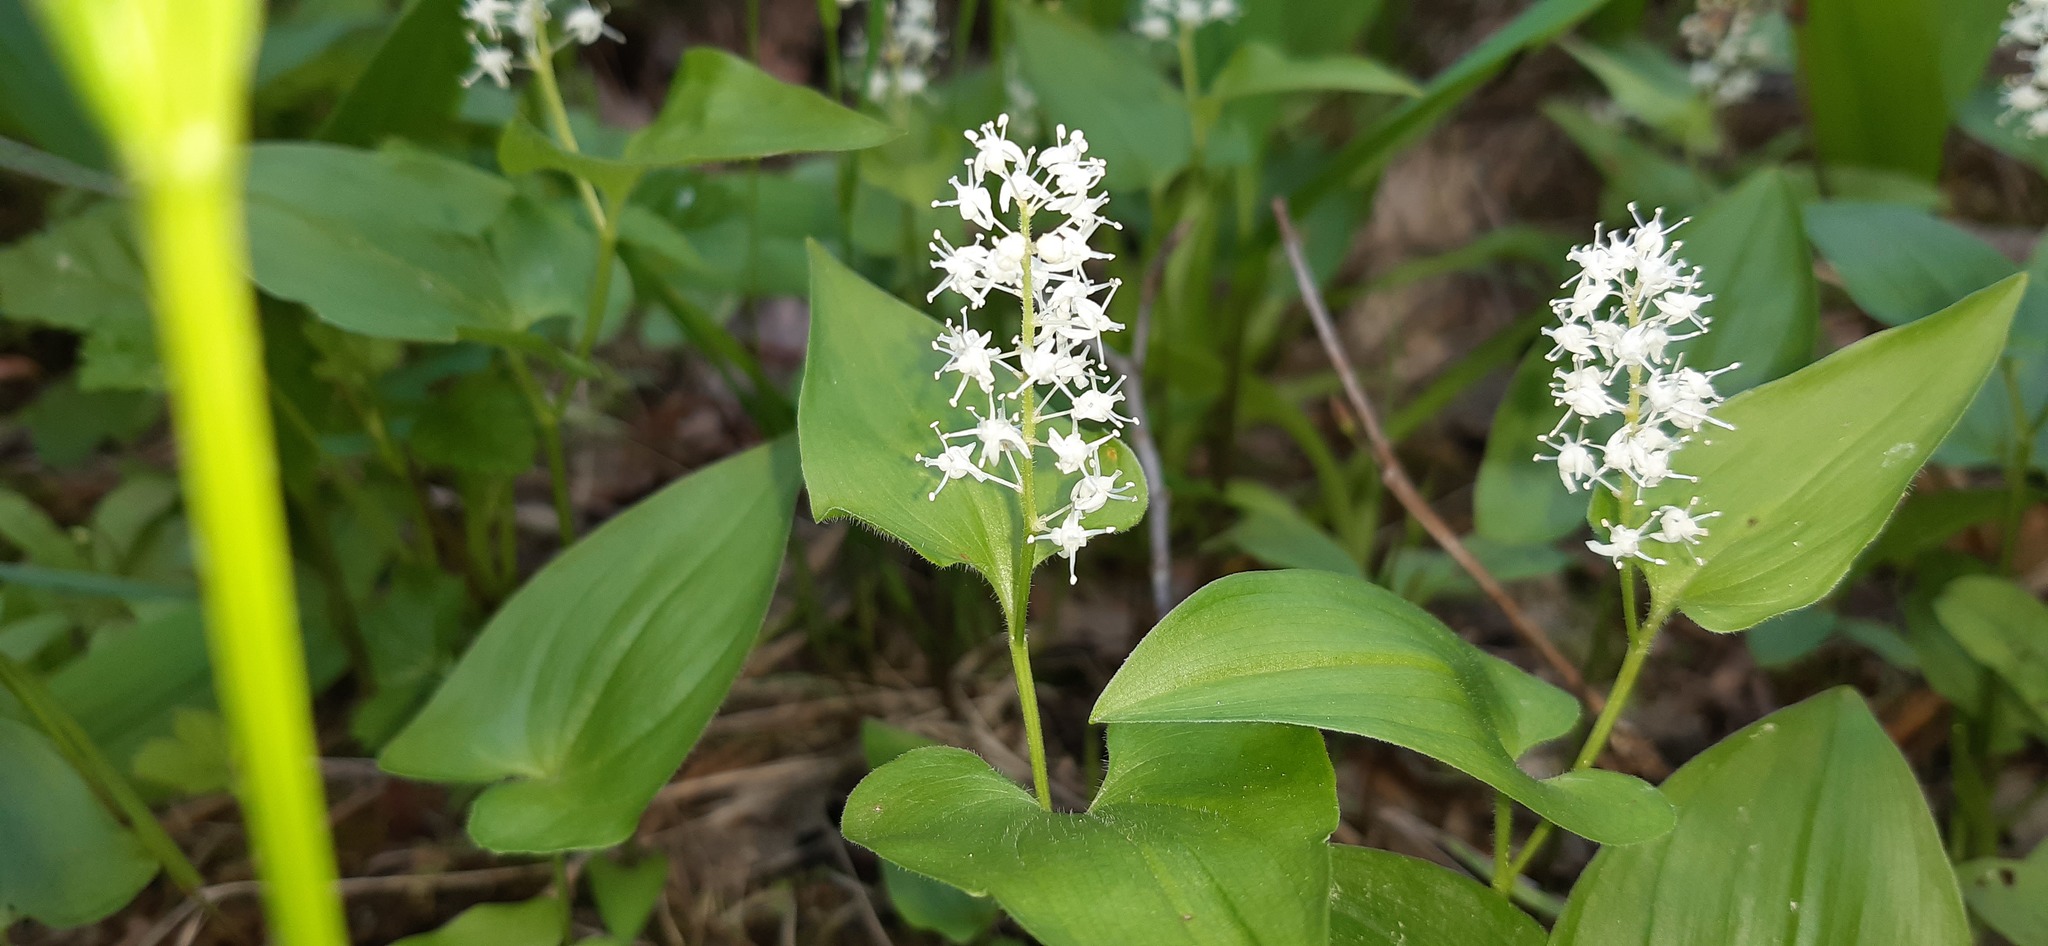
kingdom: Plantae
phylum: Tracheophyta
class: Liliopsida
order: Asparagales
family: Asparagaceae
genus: Maianthemum
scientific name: Maianthemum bifolium
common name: May lily
